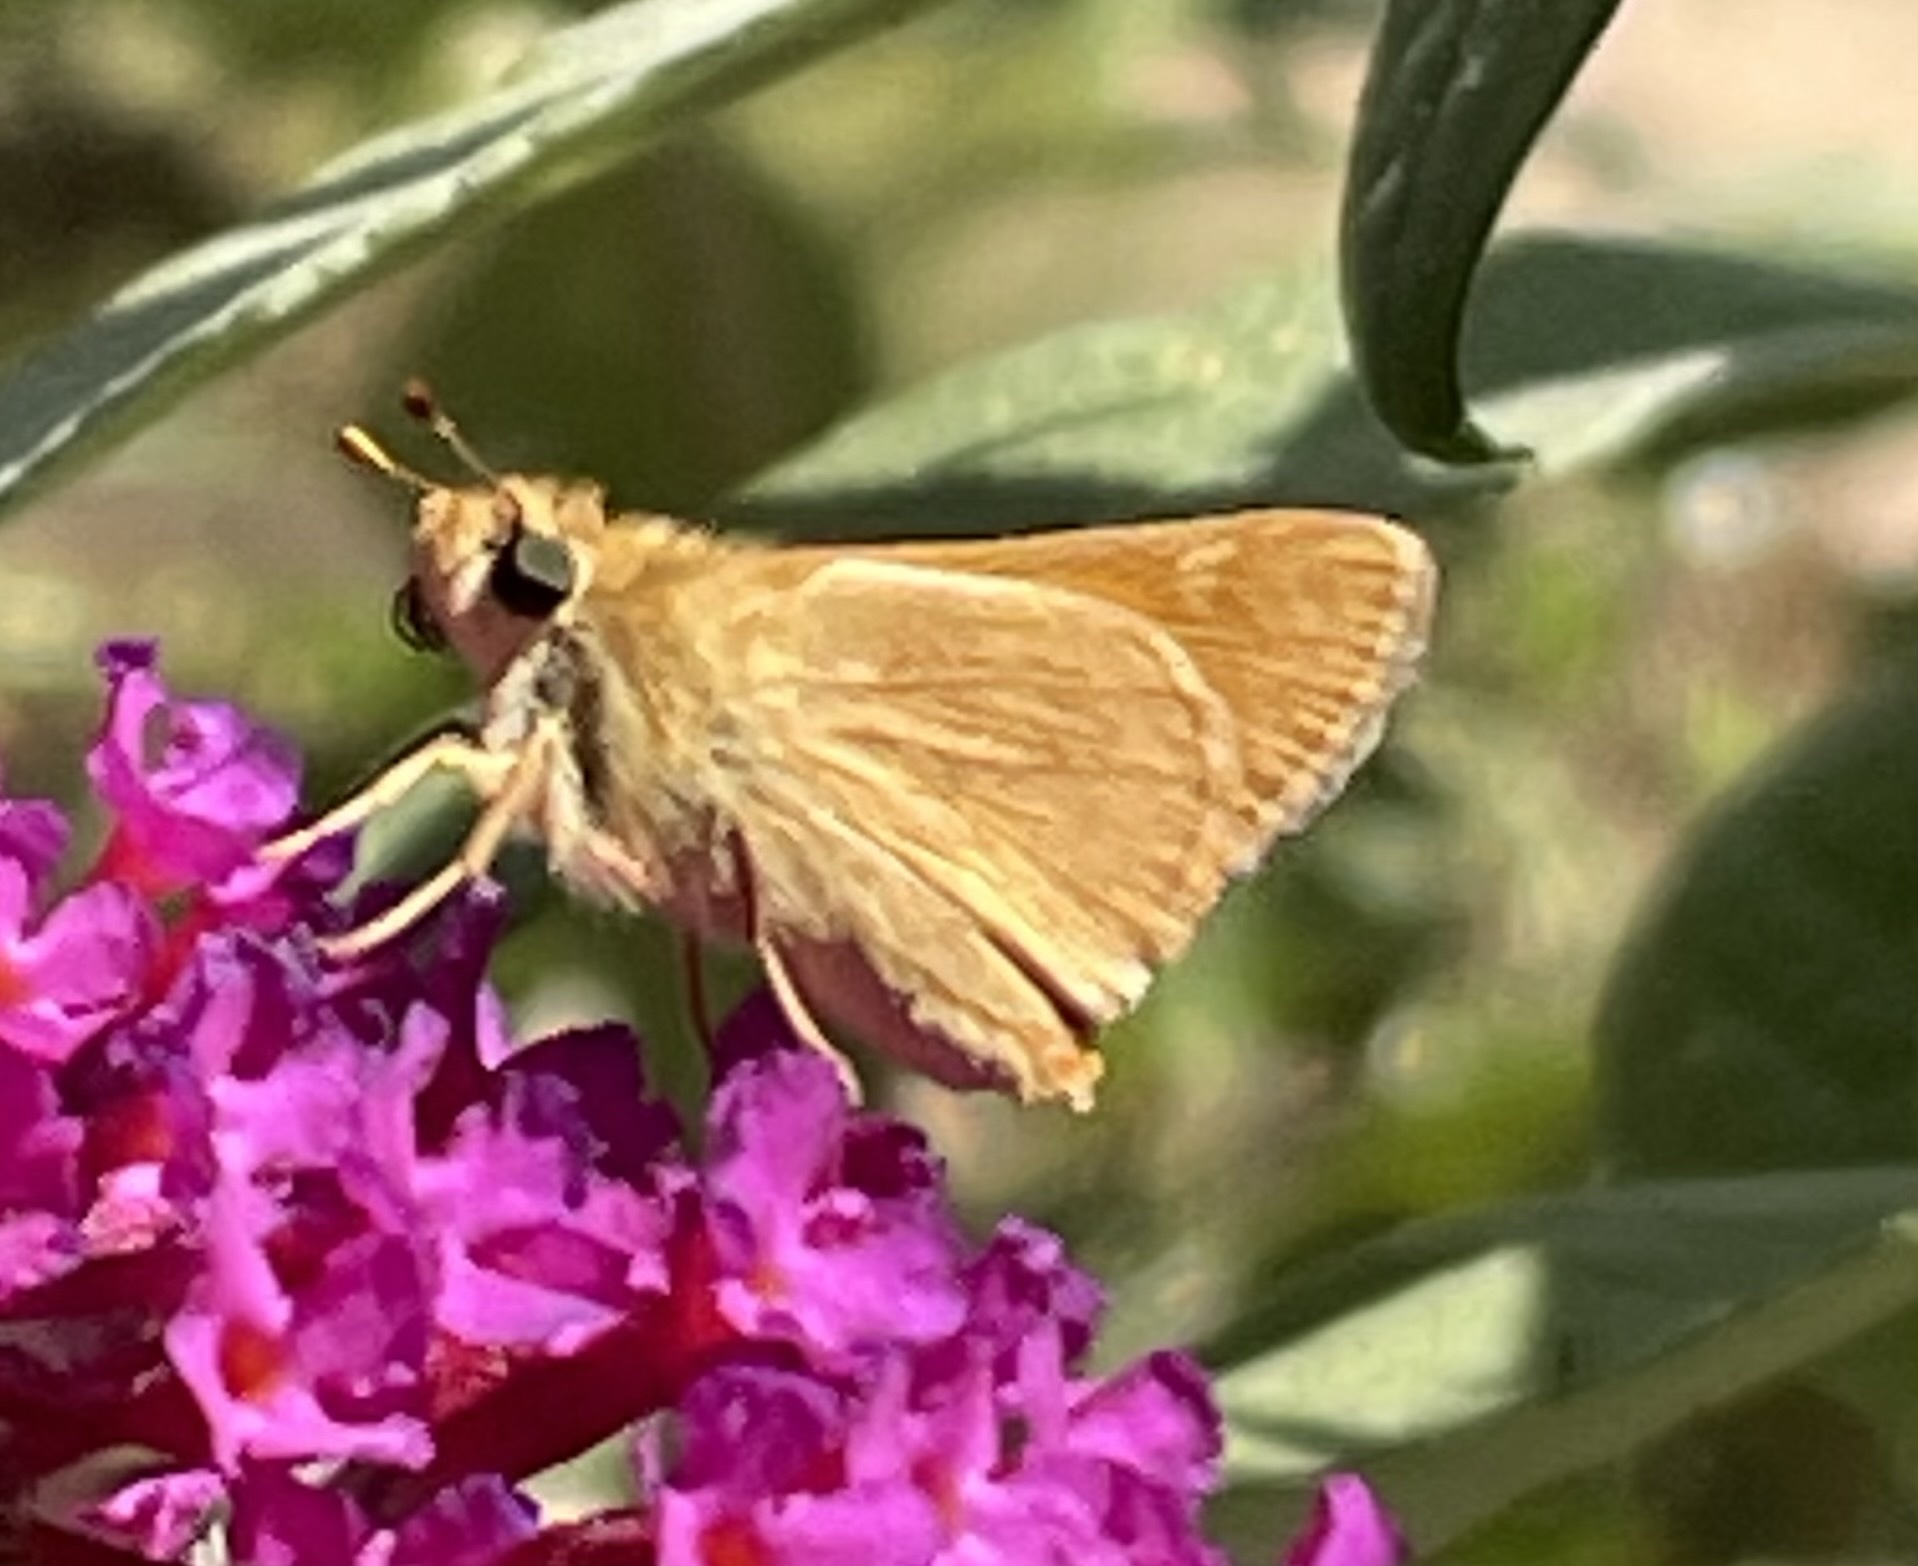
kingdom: Animalia
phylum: Arthropoda
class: Insecta
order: Lepidoptera
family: Hesperiidae
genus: Ochlodes
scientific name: Ochlodes sylvanoides
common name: Woodland skipper
